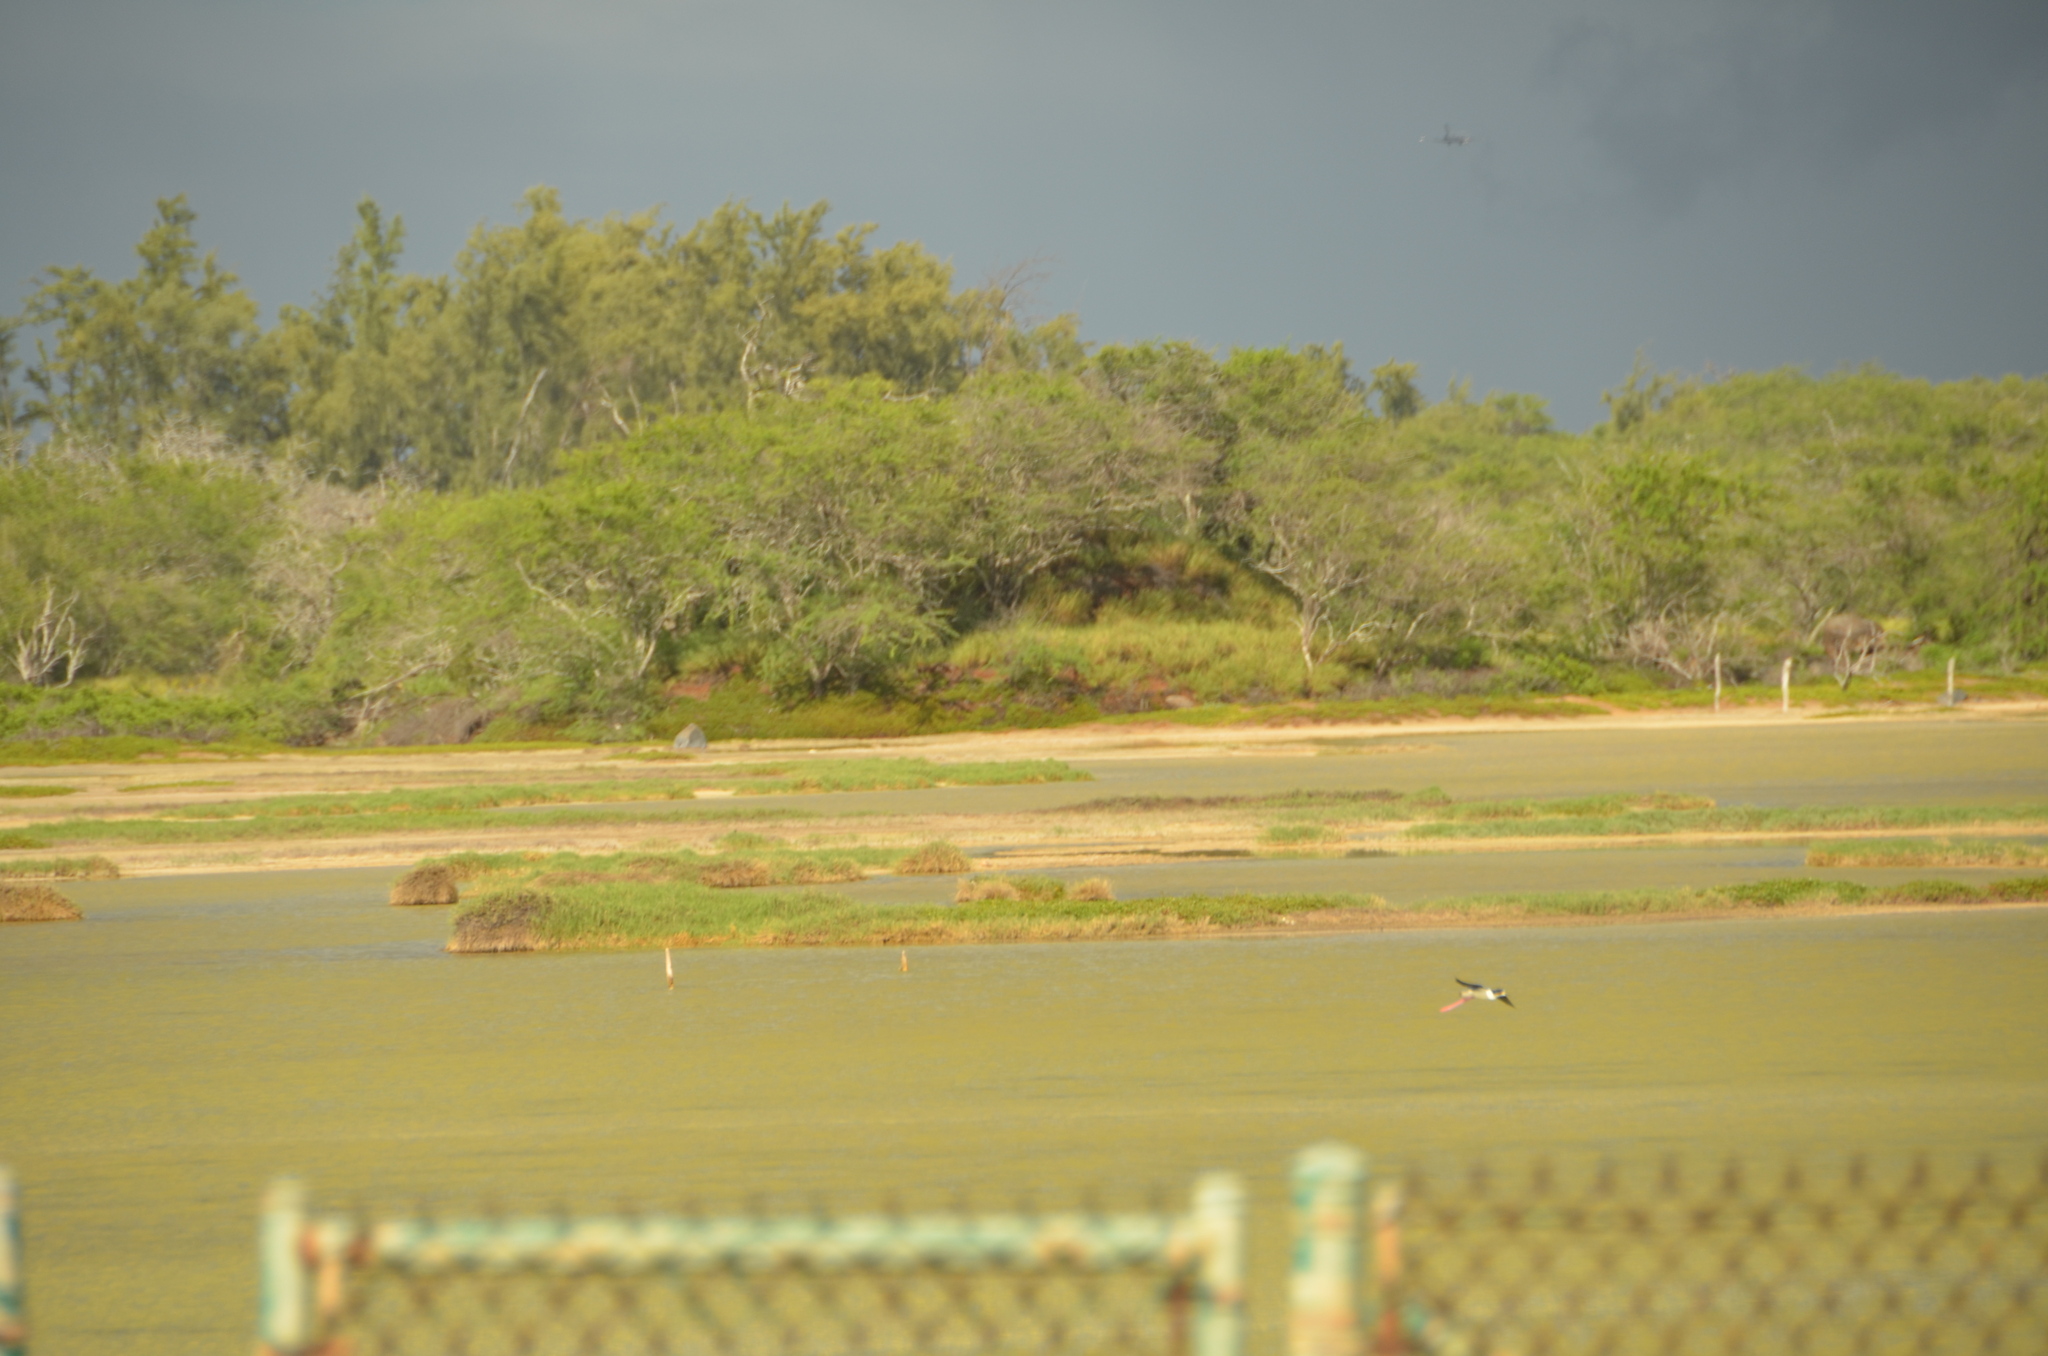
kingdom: Animalia
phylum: Chordata
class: Aves
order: Charadriiformes
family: Recurvirostridae
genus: Himantopus
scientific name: Himantopus mexicanus
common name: Black-necked stilt
